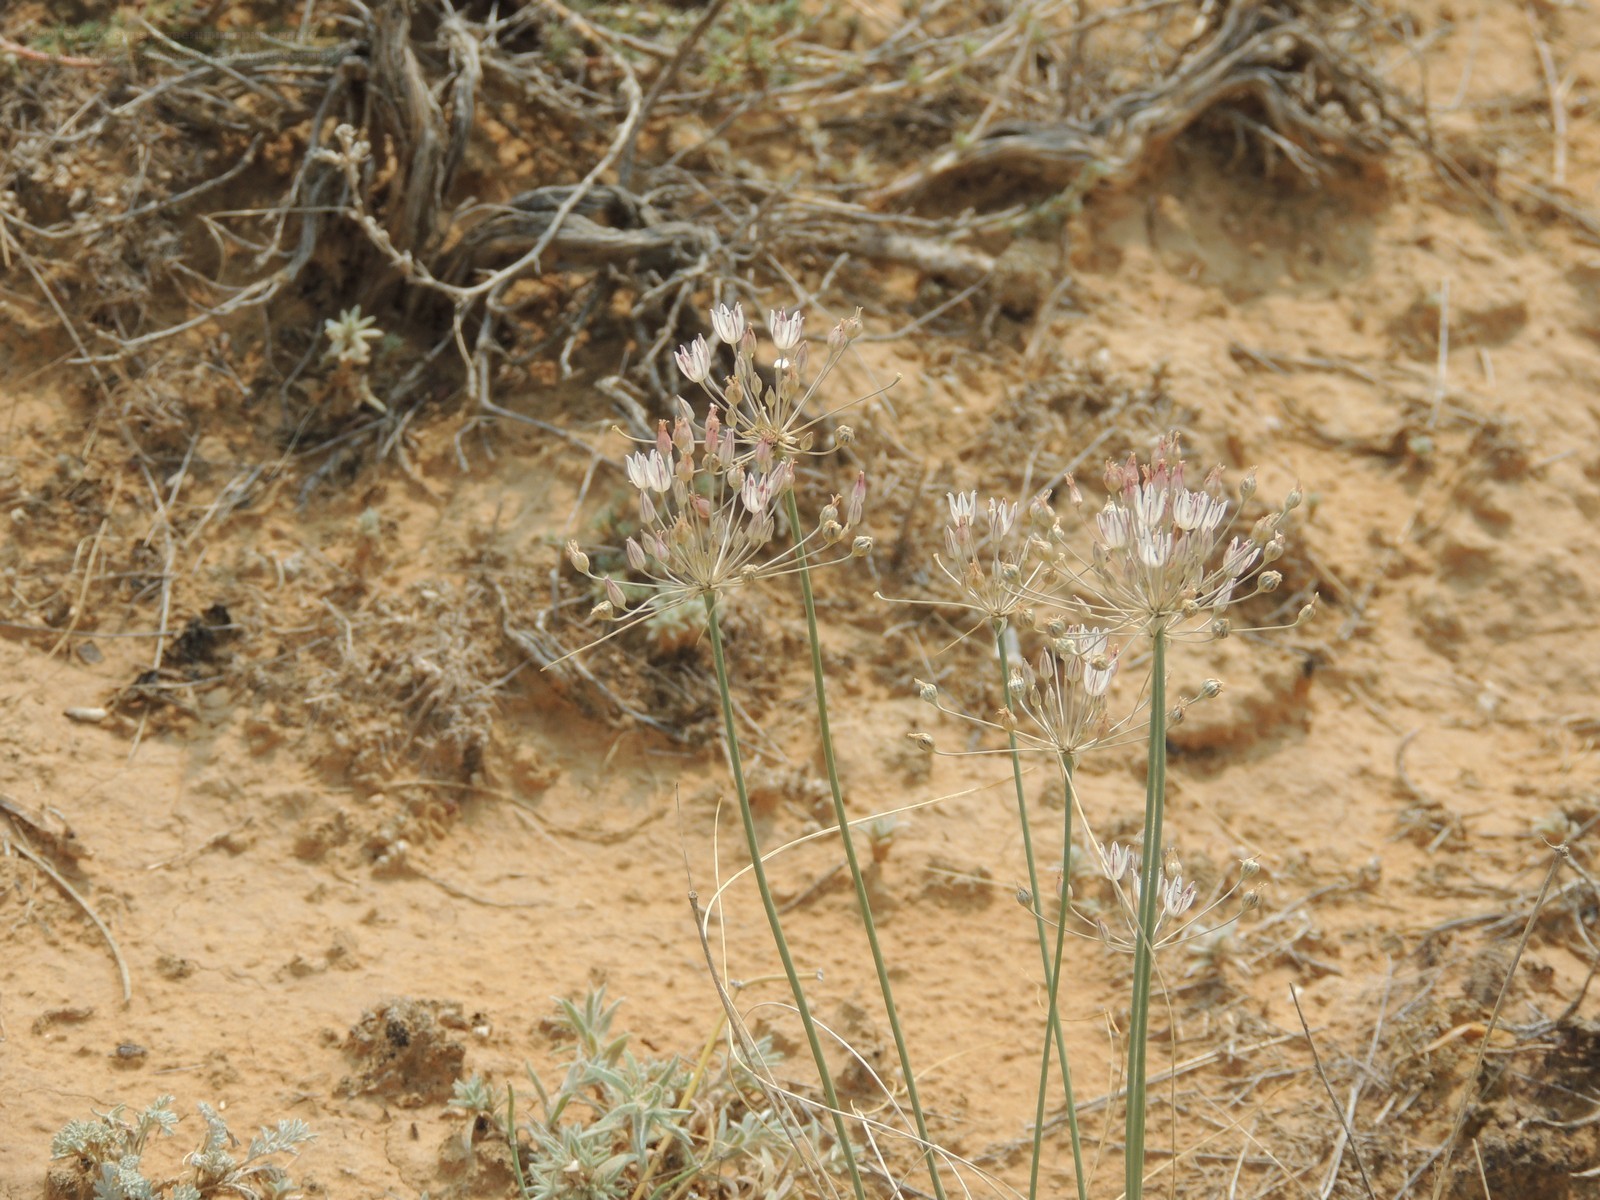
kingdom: Plantae
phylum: Tracheophyta
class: Liliopsida
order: Asparagales
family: Amaryllidaceae
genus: Allium
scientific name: Allium inaequale
